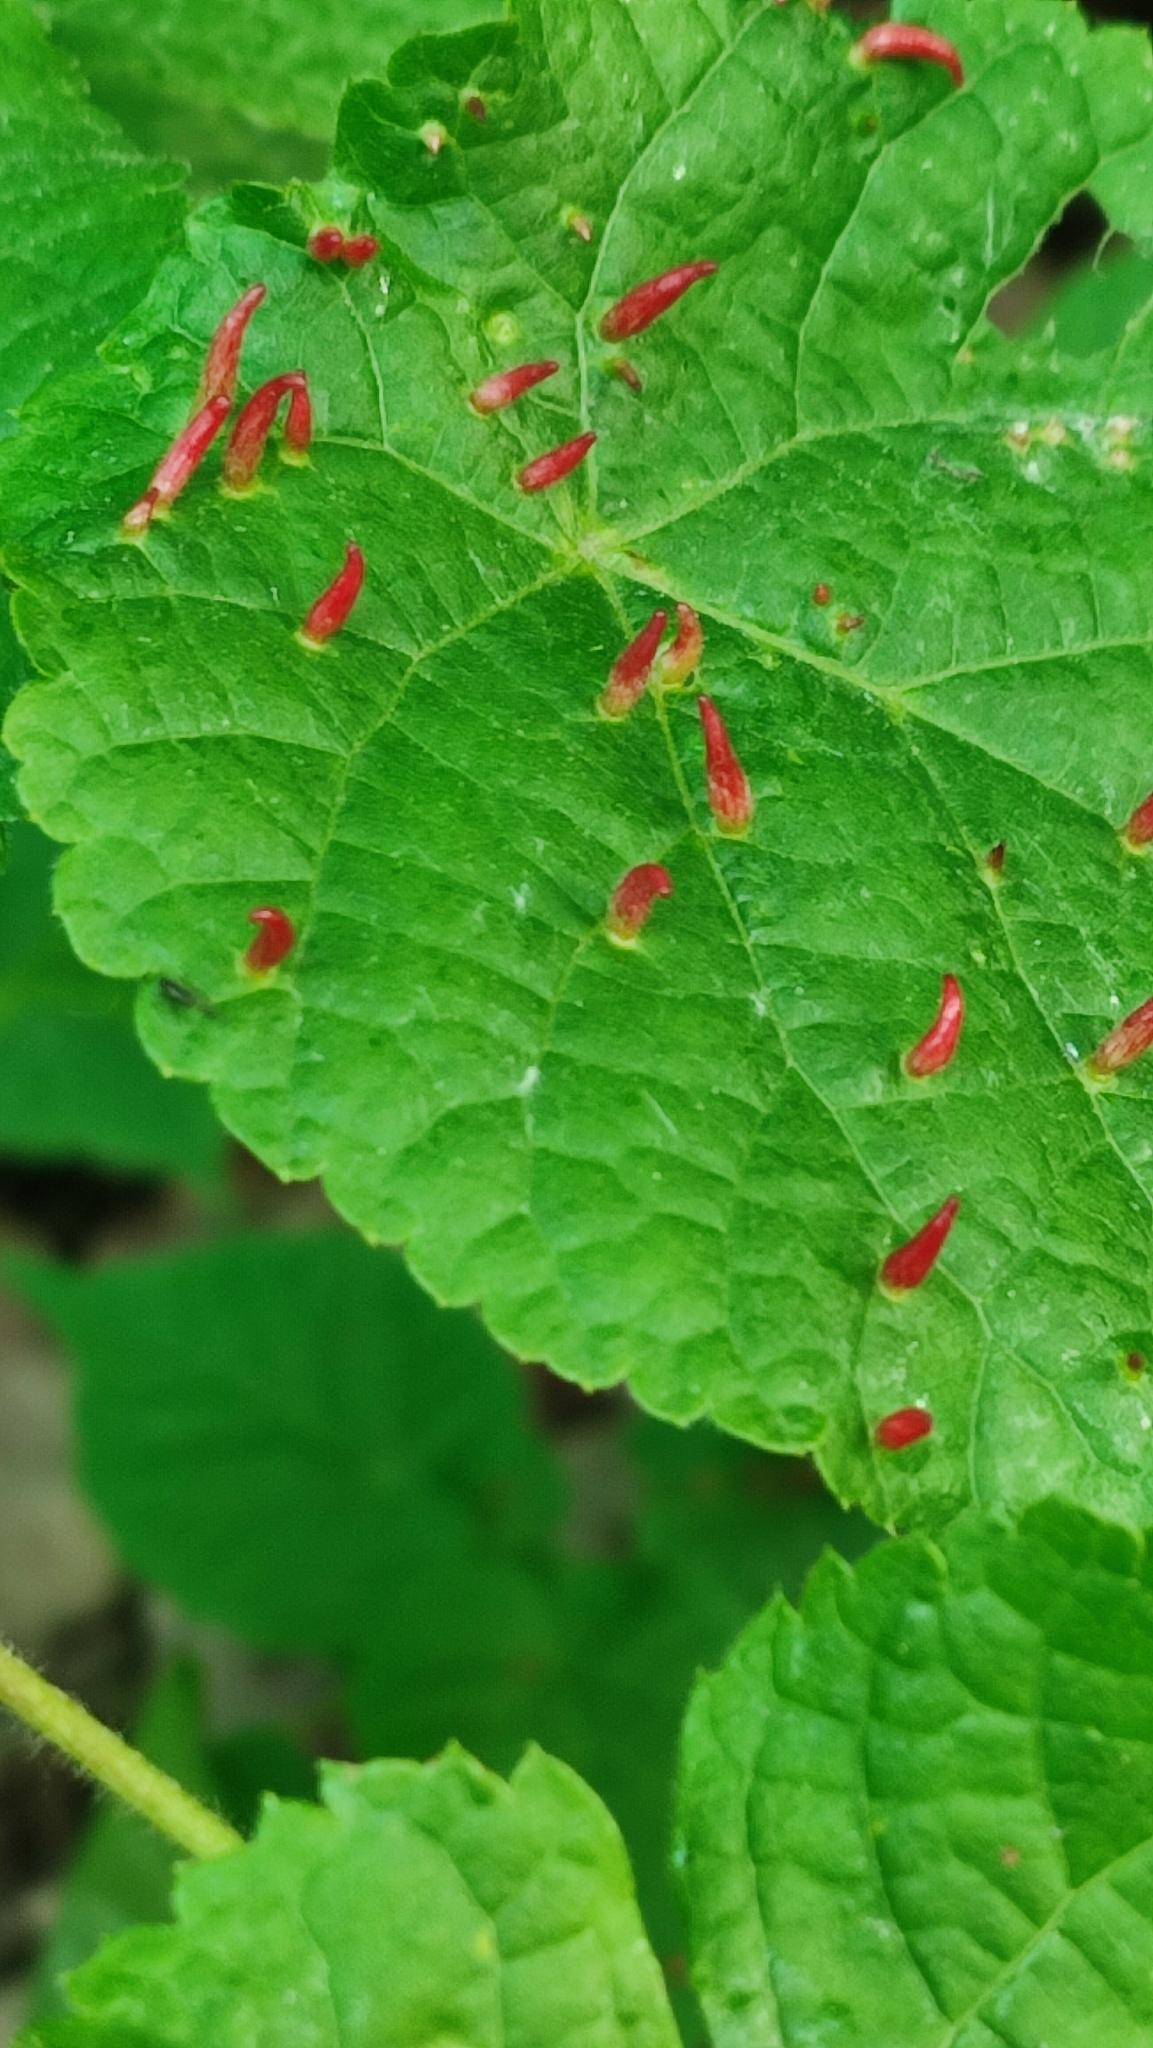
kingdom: Animalia
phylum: Arthropoda
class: Arachnida
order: Trombidiformes
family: Eriophyidae
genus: Eriophyes
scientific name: Eriophyes tiliae
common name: Red nail gall mite
